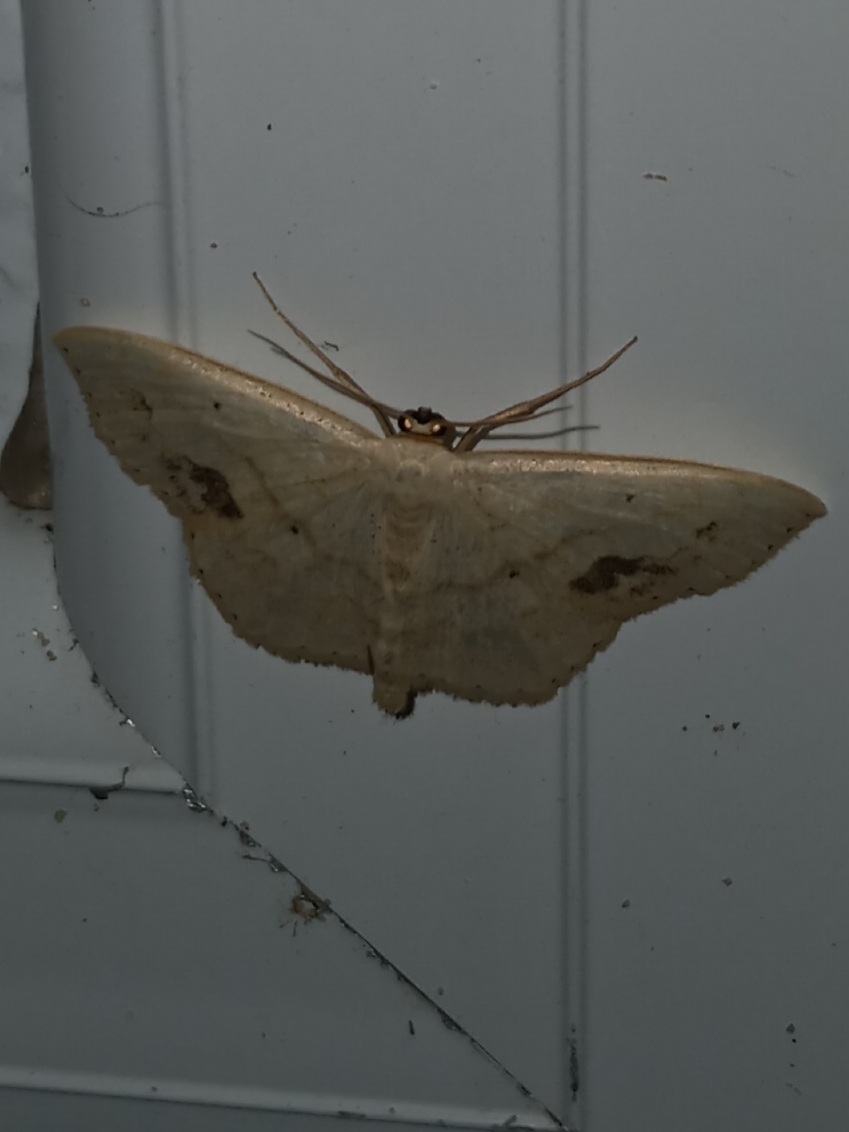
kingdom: Animalia
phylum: Arthropoda
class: Insecta
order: Lepidoptera
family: Geometridae
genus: Scopula
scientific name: Scopula limboundata
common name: Large lace border
